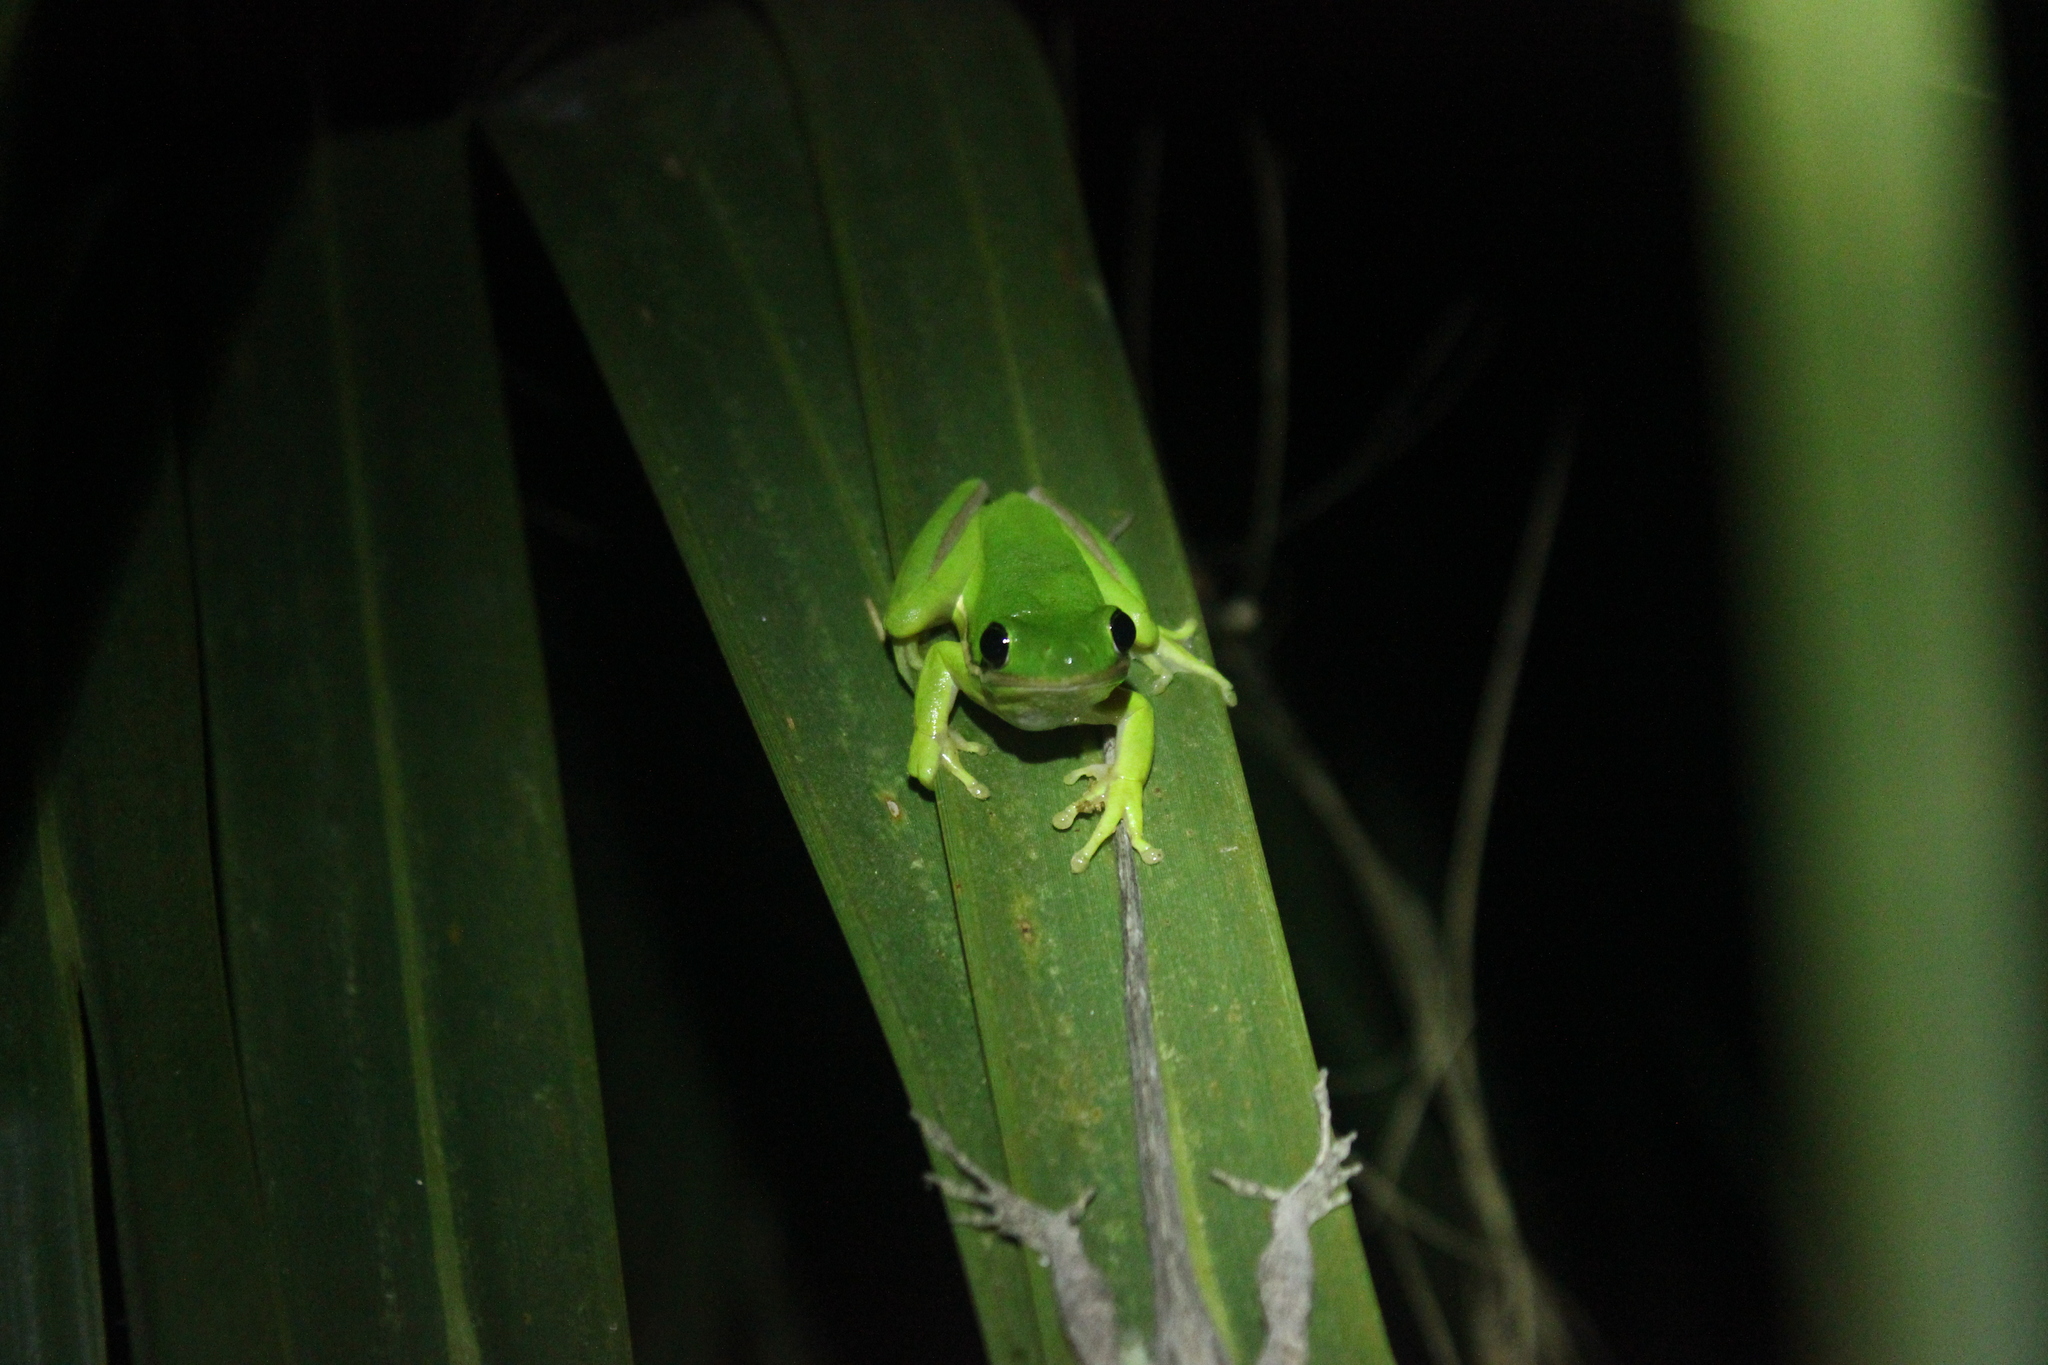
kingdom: Animalia
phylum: Chordata
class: Amphibia
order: Anura
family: Hylidae
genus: Dryophytes
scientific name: Dryophytes cinereus
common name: Green treefrog
